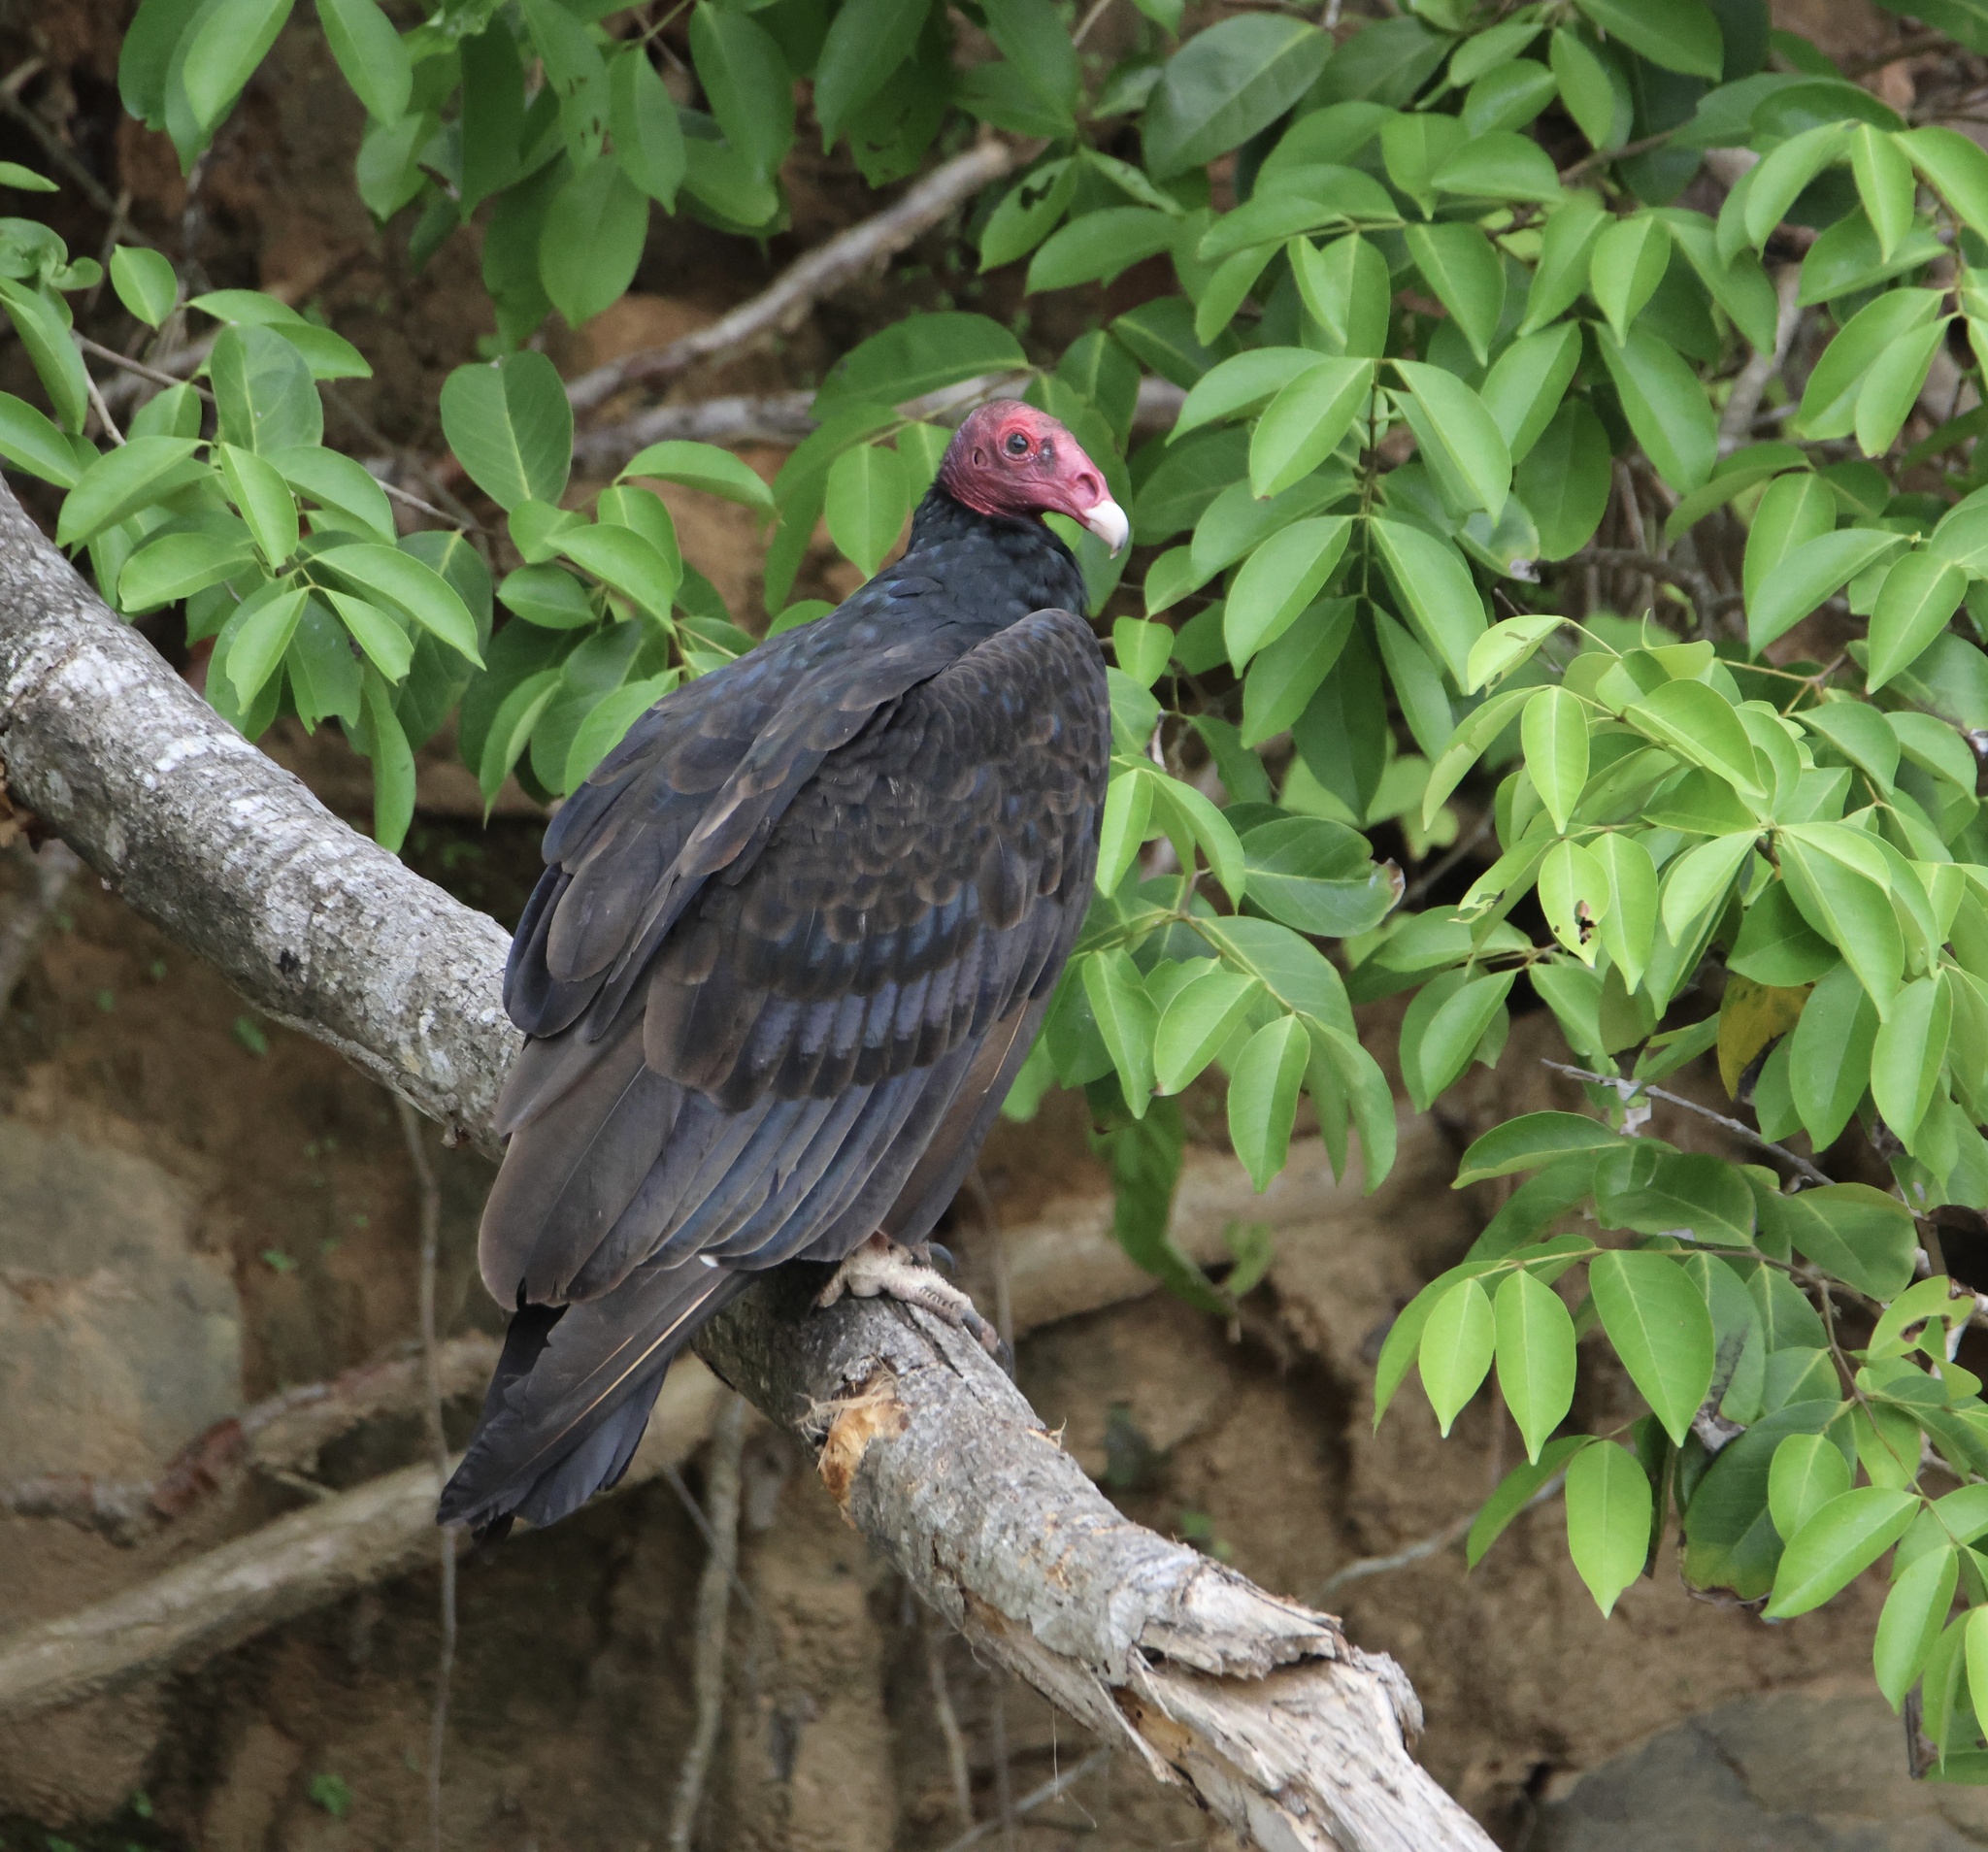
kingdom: Animalia
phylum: Chordata
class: Aves
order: Accipitriformes
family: Cathartidae
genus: Cathartes
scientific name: Cathartes aura
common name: Turkey vulture
